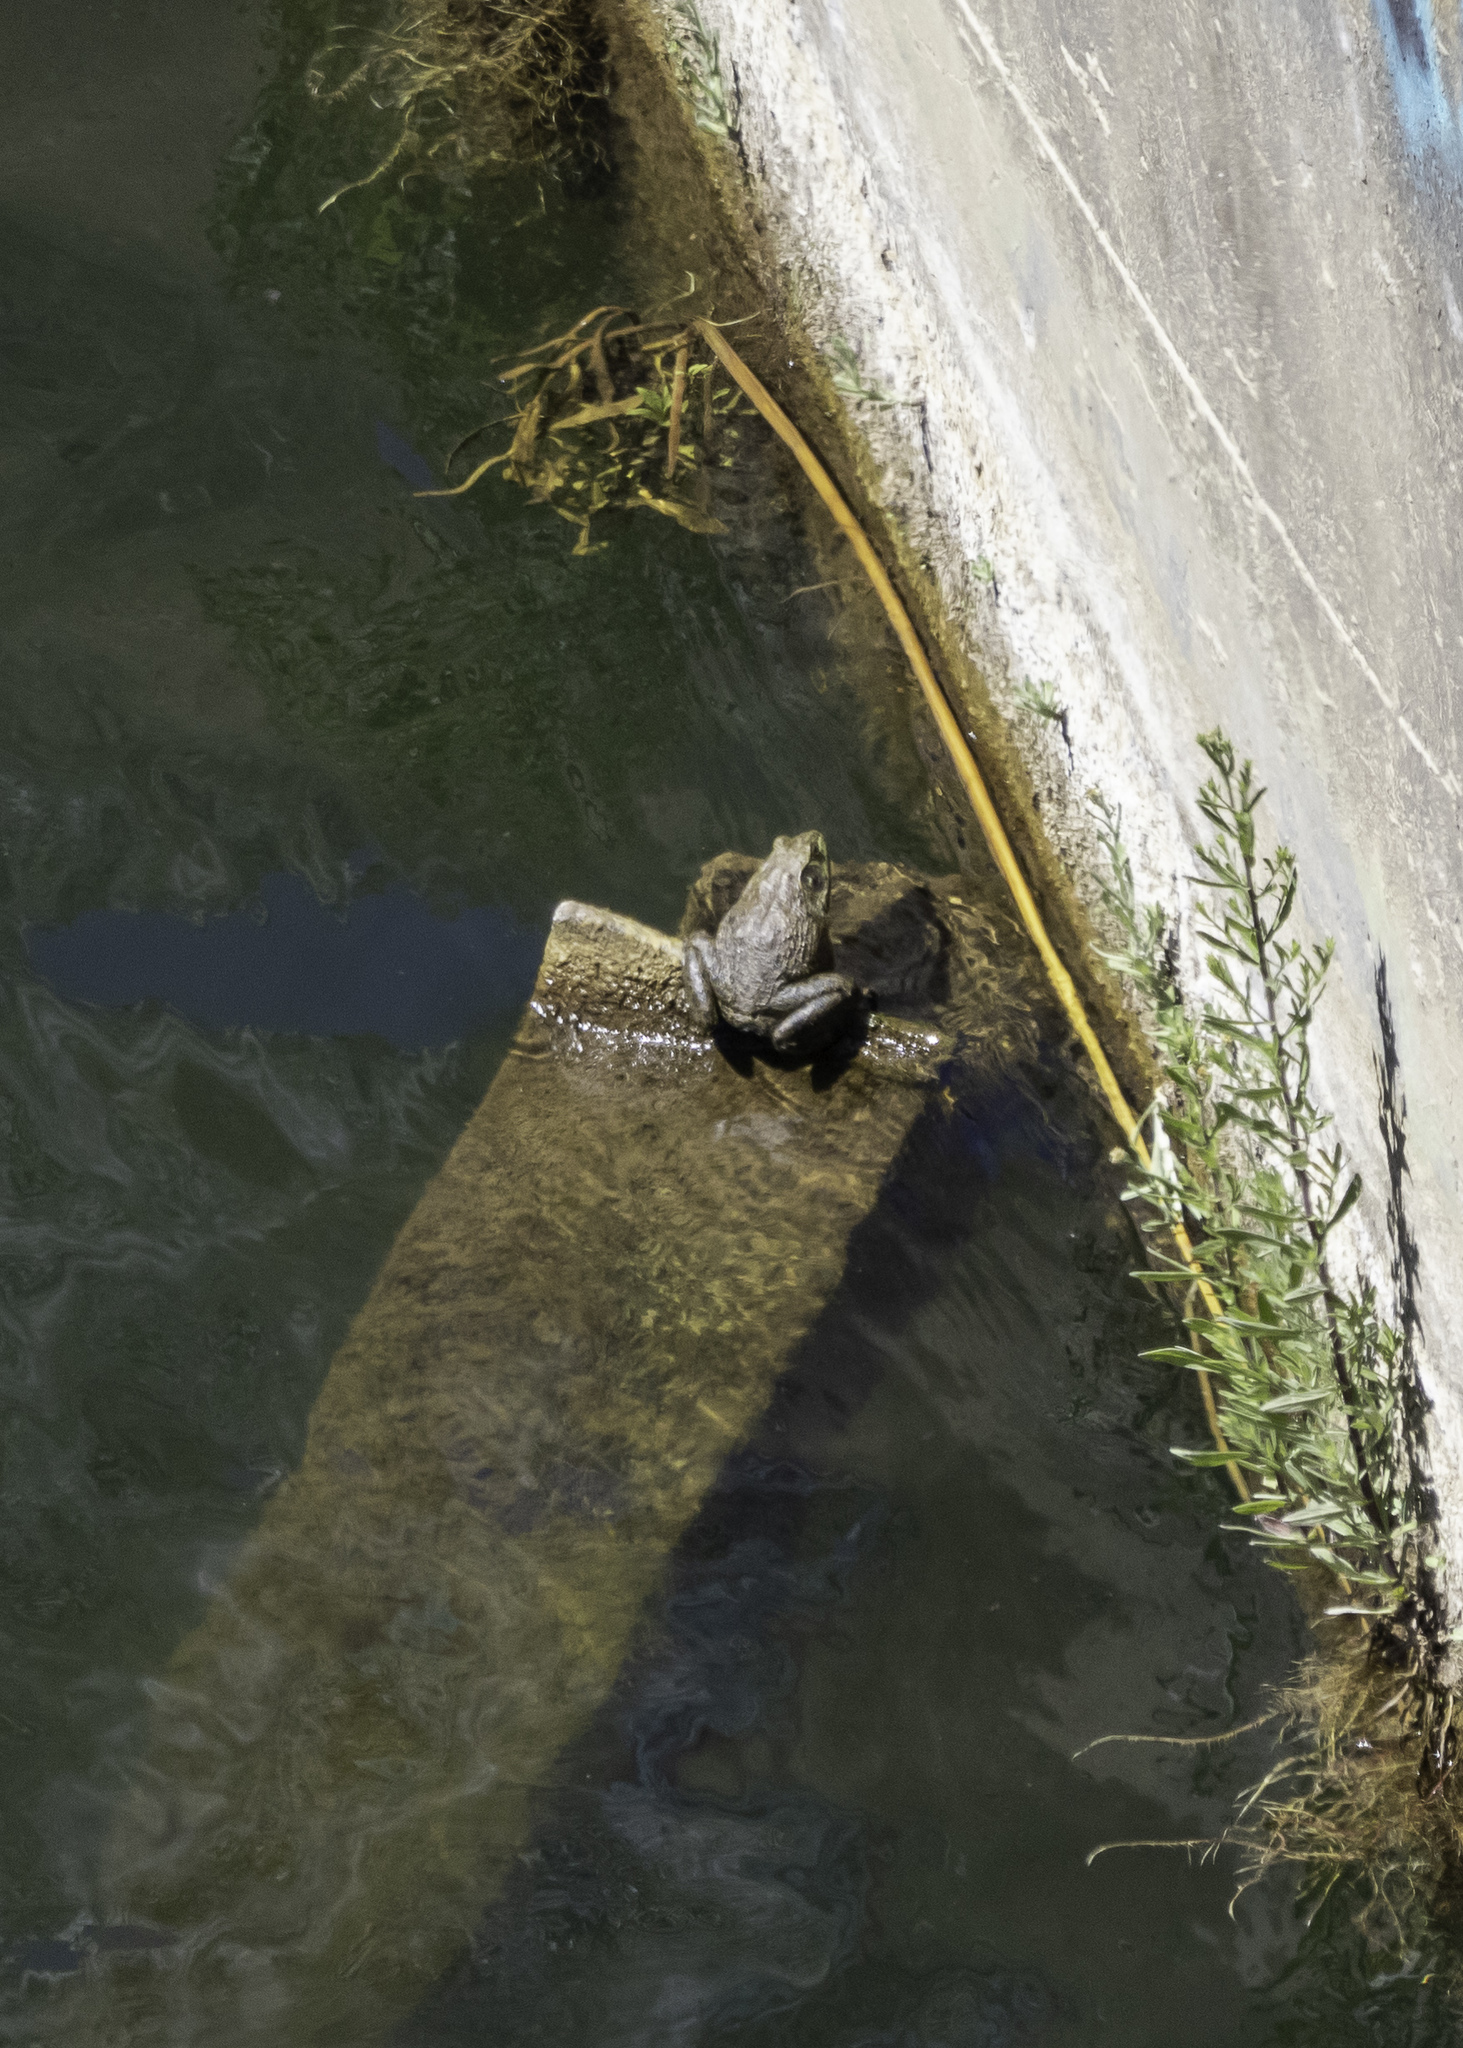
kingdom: Animalia
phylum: Chordata
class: Amphibia
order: Anura
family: Ranidae
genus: Lithobates
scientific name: Lithobates catesbeianus
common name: American bullfrog
